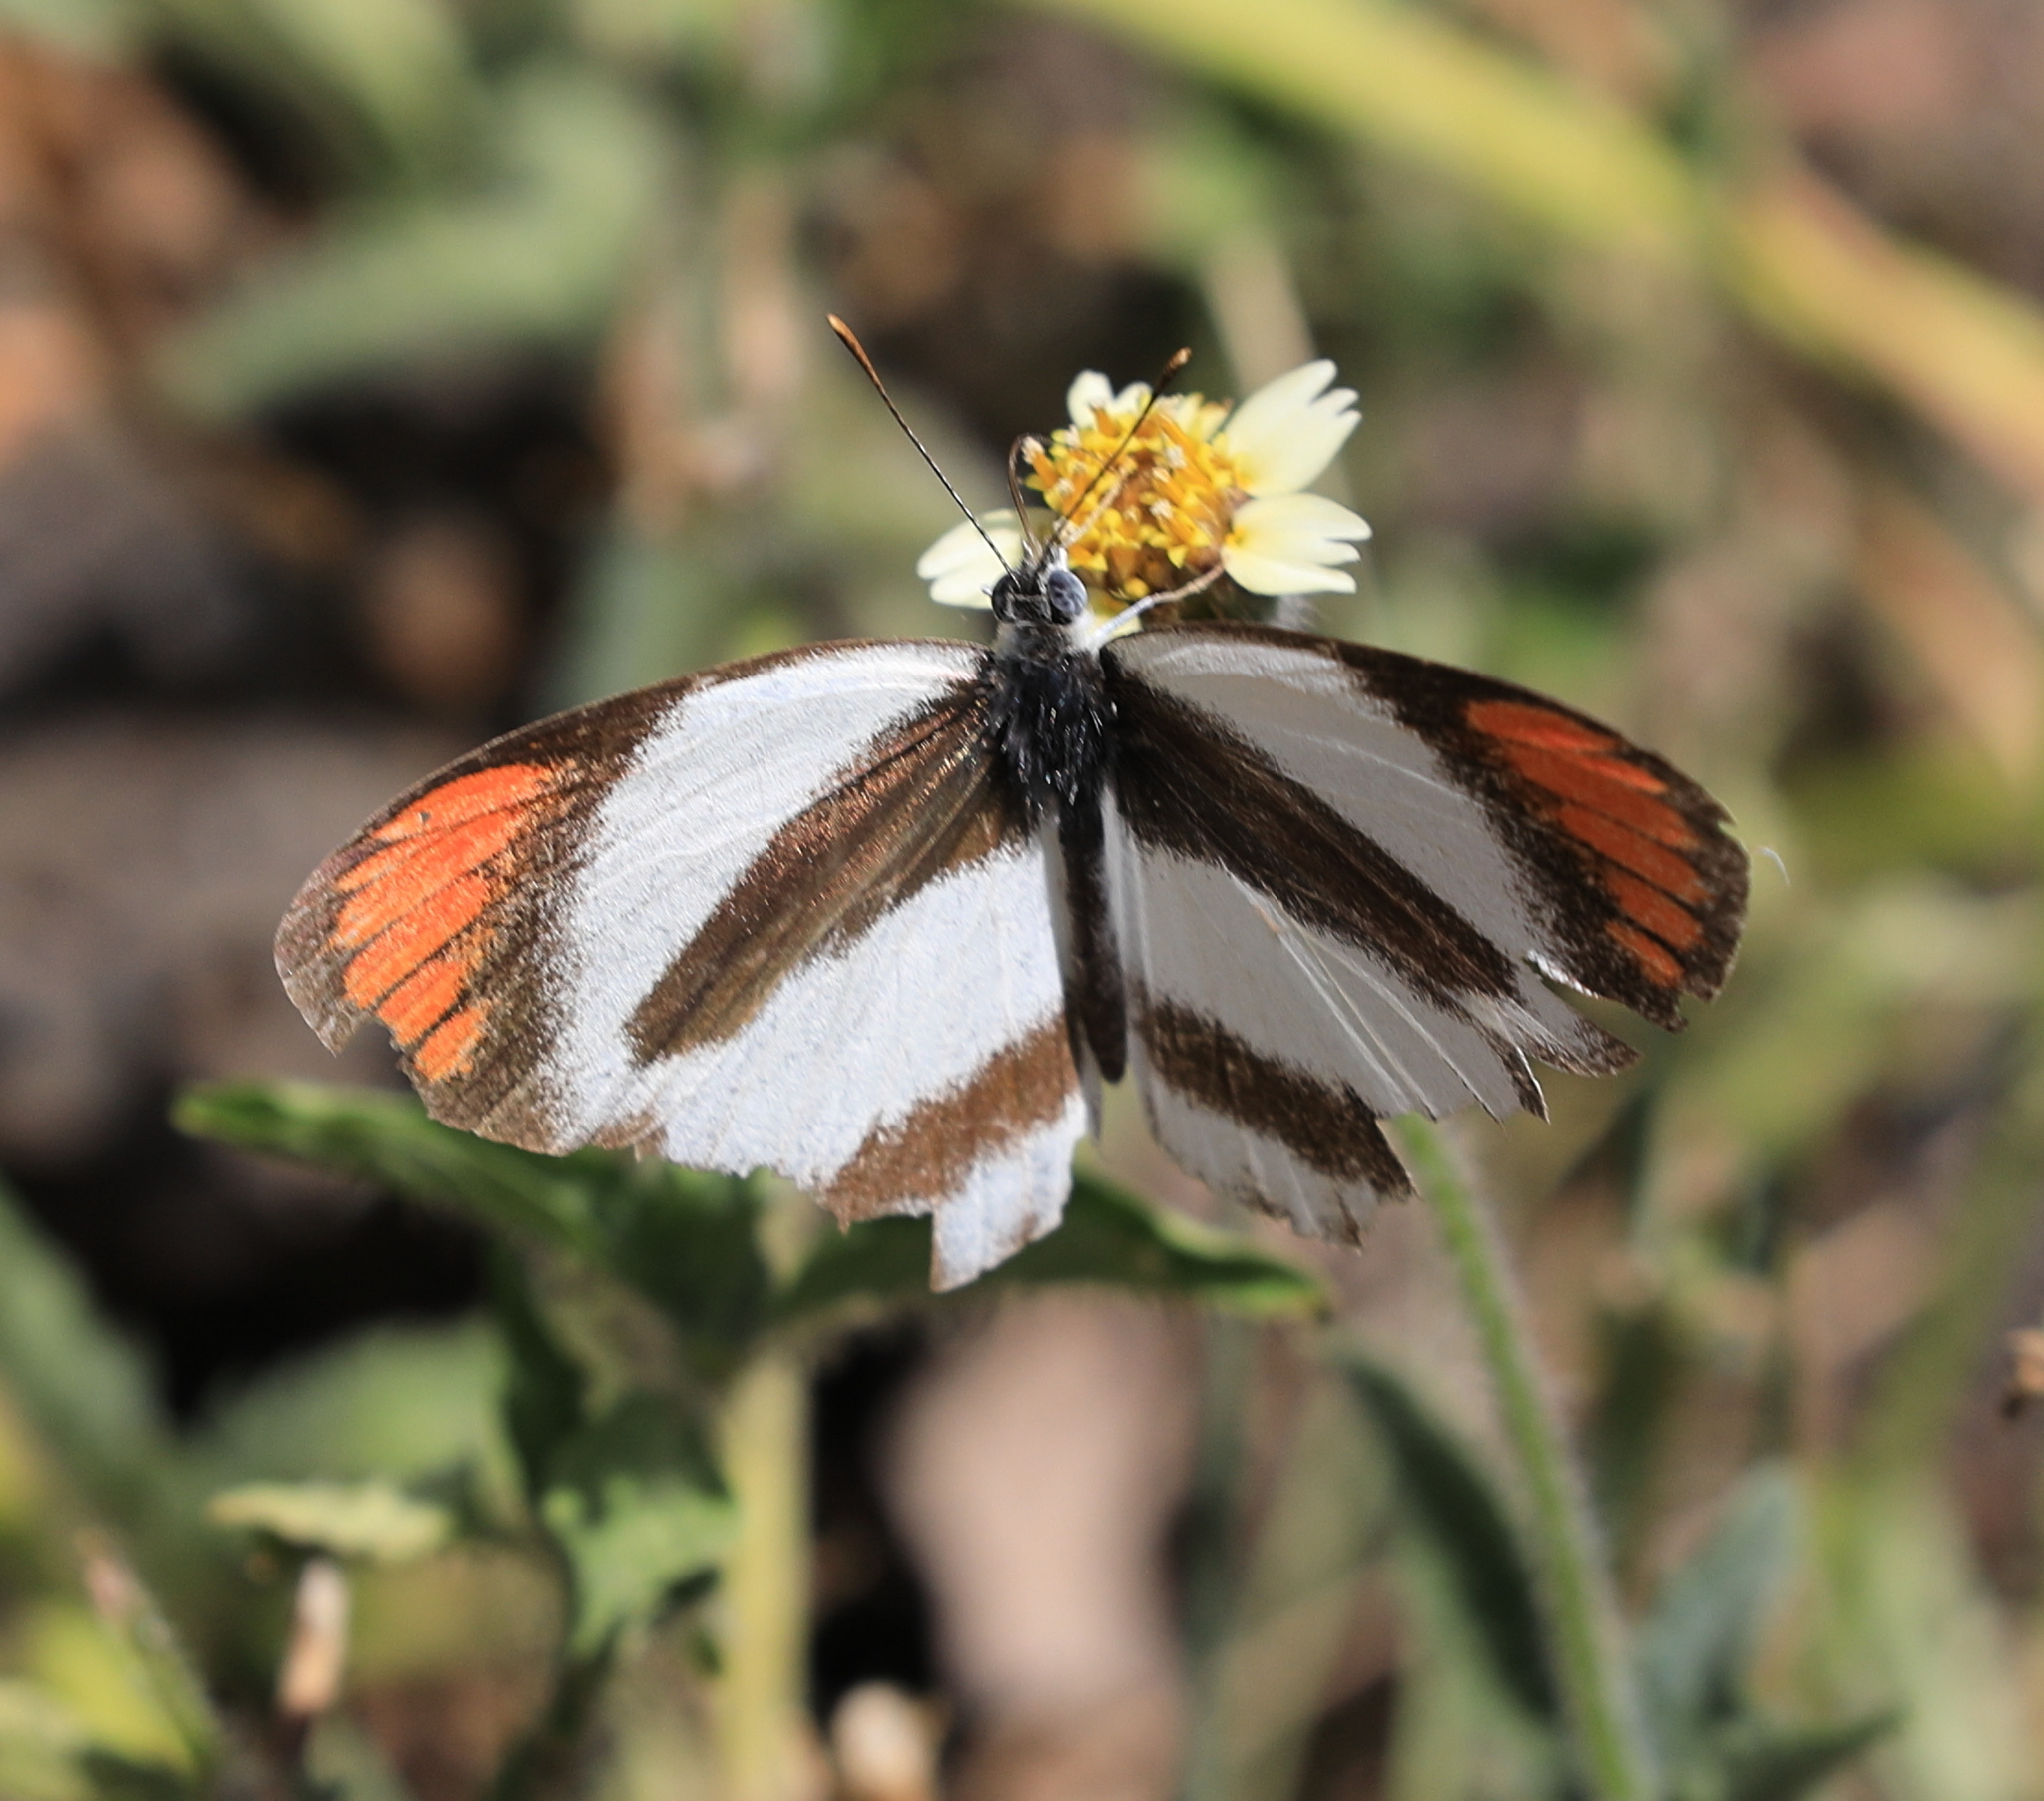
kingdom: Animalia
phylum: Arthropoda
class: Insecta
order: Lepidoptera
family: Pieridae
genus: Colotis
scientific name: Colotis euippe
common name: Round-winged orange tip
